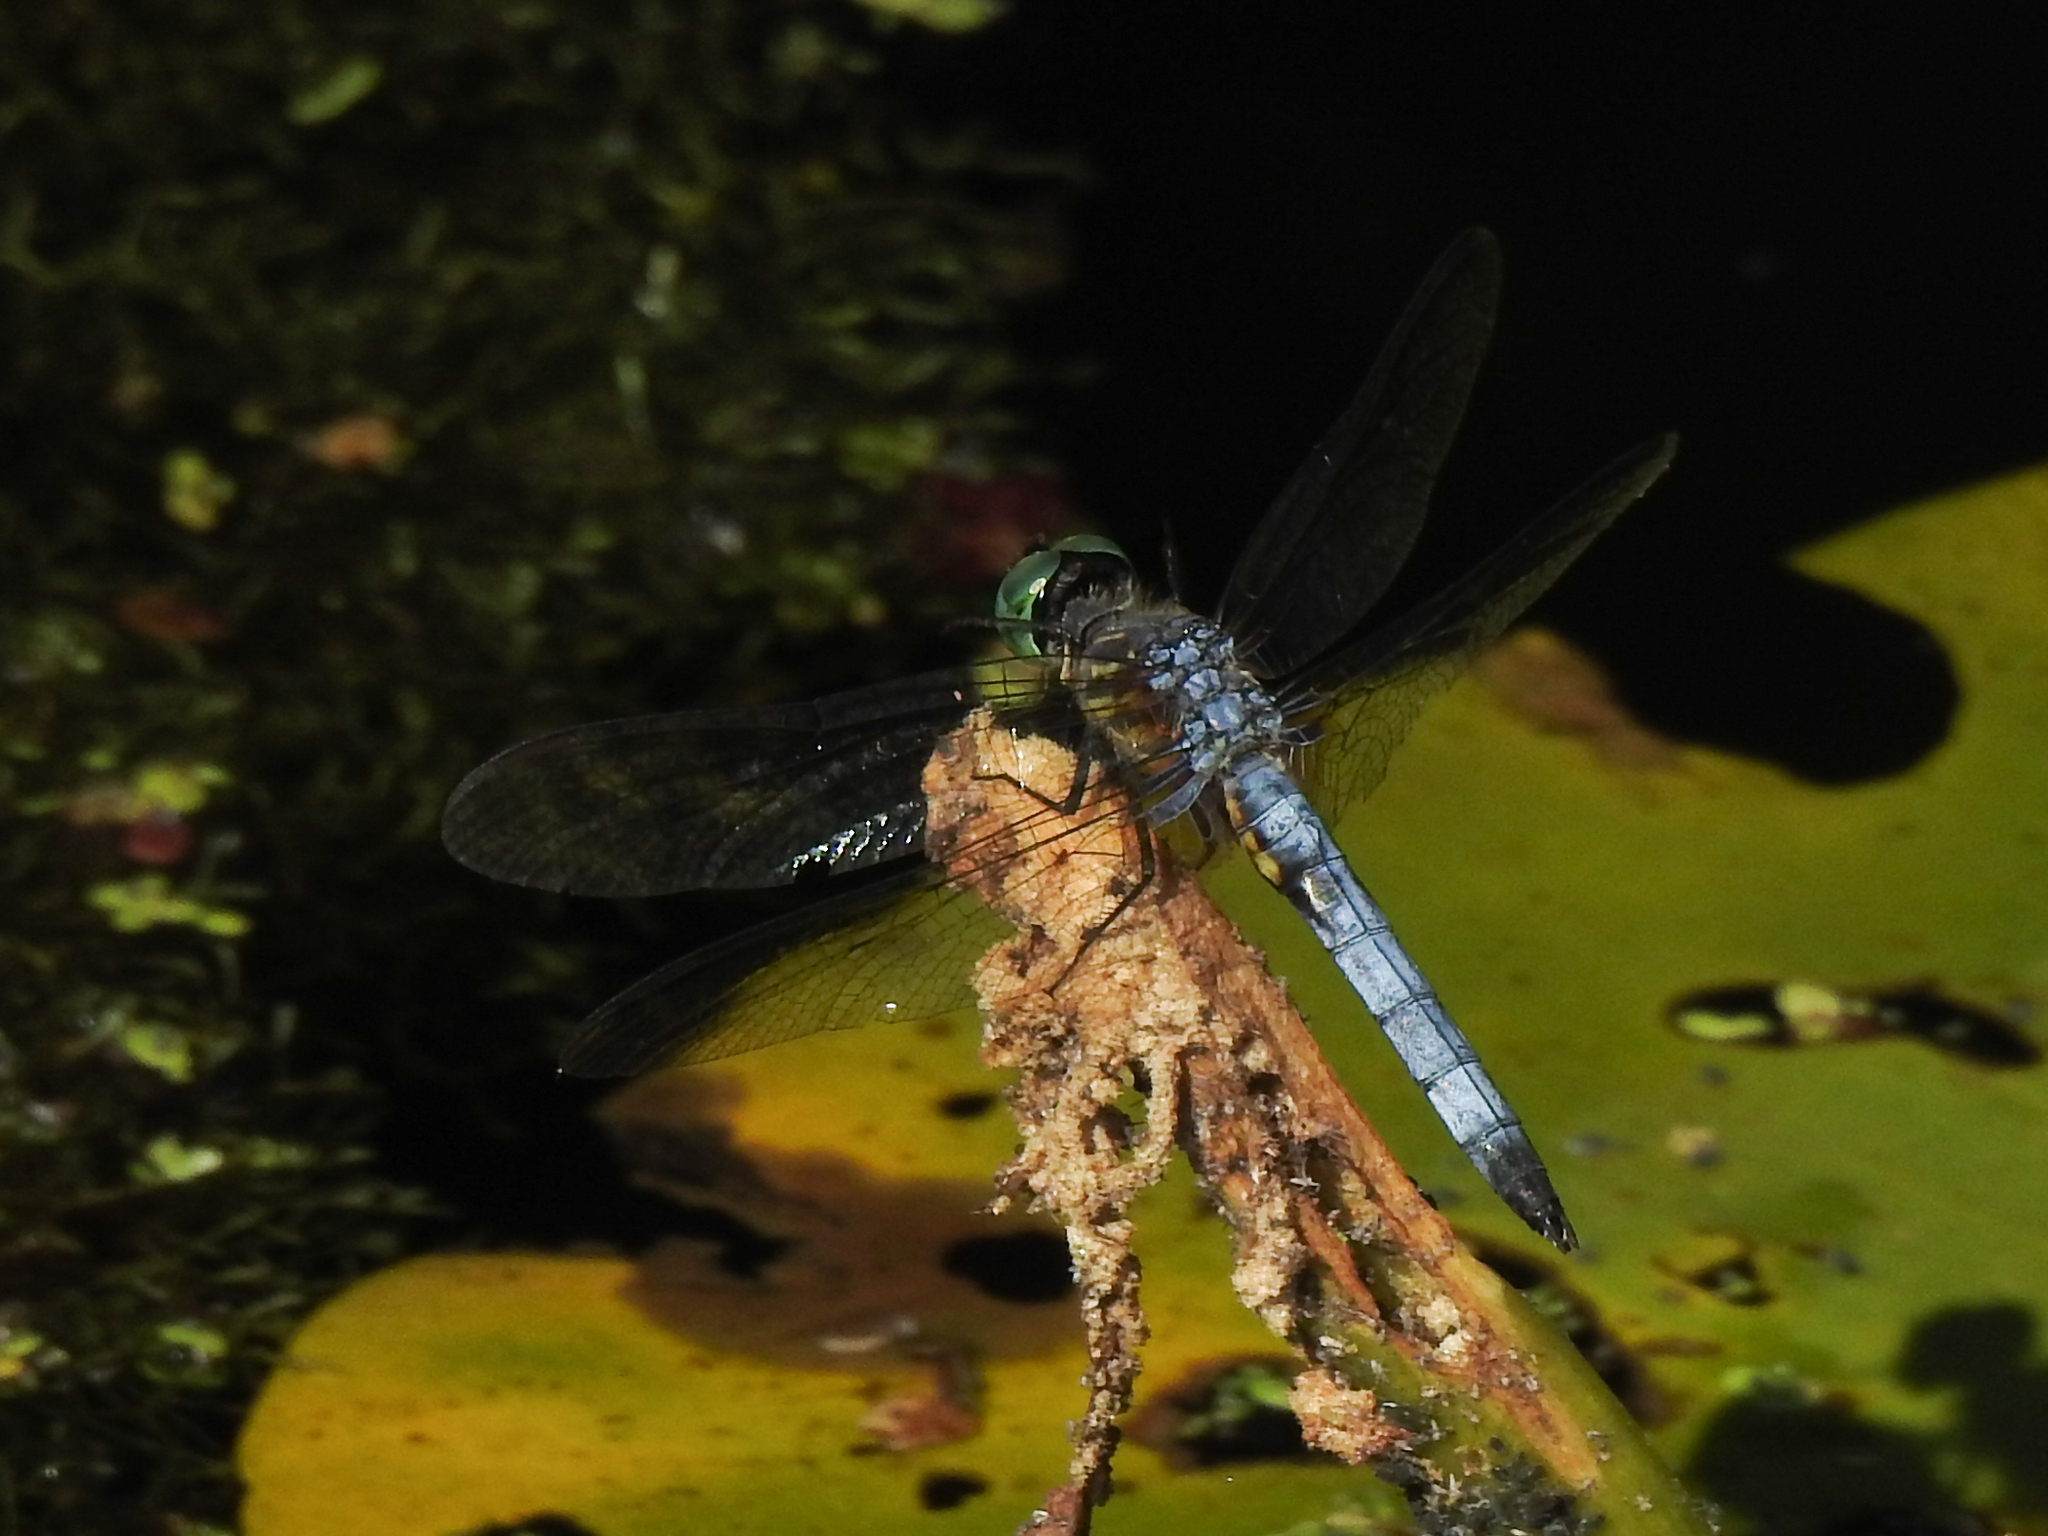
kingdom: Animalia
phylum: Arthropoda
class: Insecta
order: Odonata
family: Libellulidae
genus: Pachydiplax
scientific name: Pachydiplax longipennis
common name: Blue dasher
